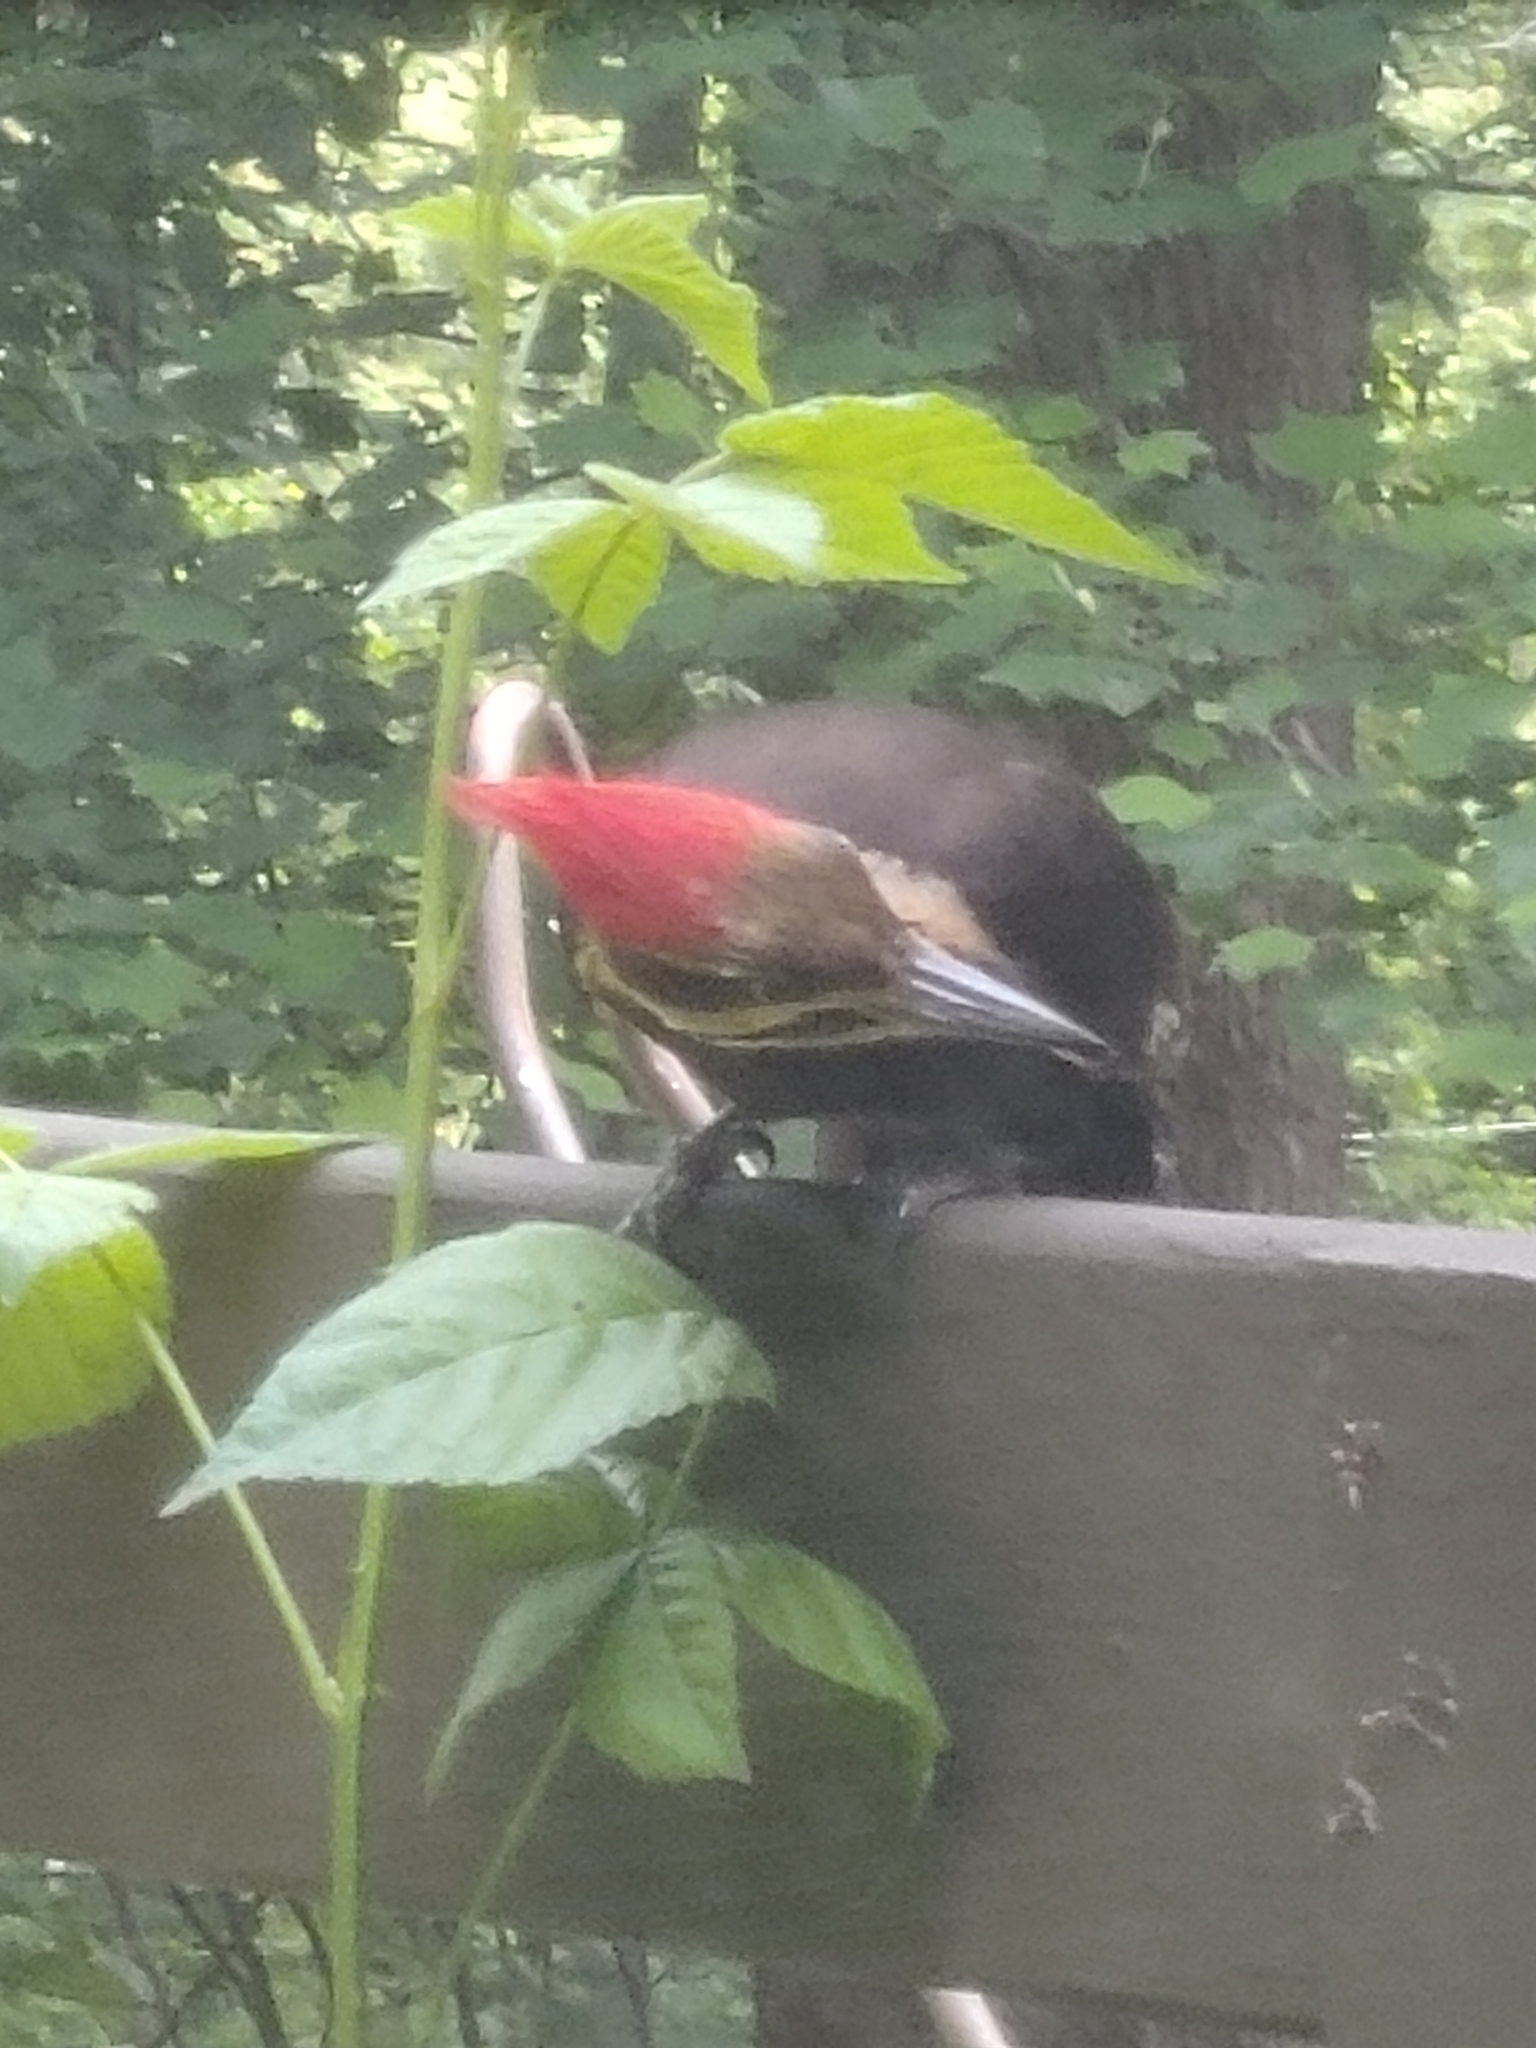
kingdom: Animalia
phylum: Chordata
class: Aves
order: Piciformes
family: Picidae
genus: Dryocopus
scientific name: Dryocopus pileatus
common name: Pileated woodpecker
